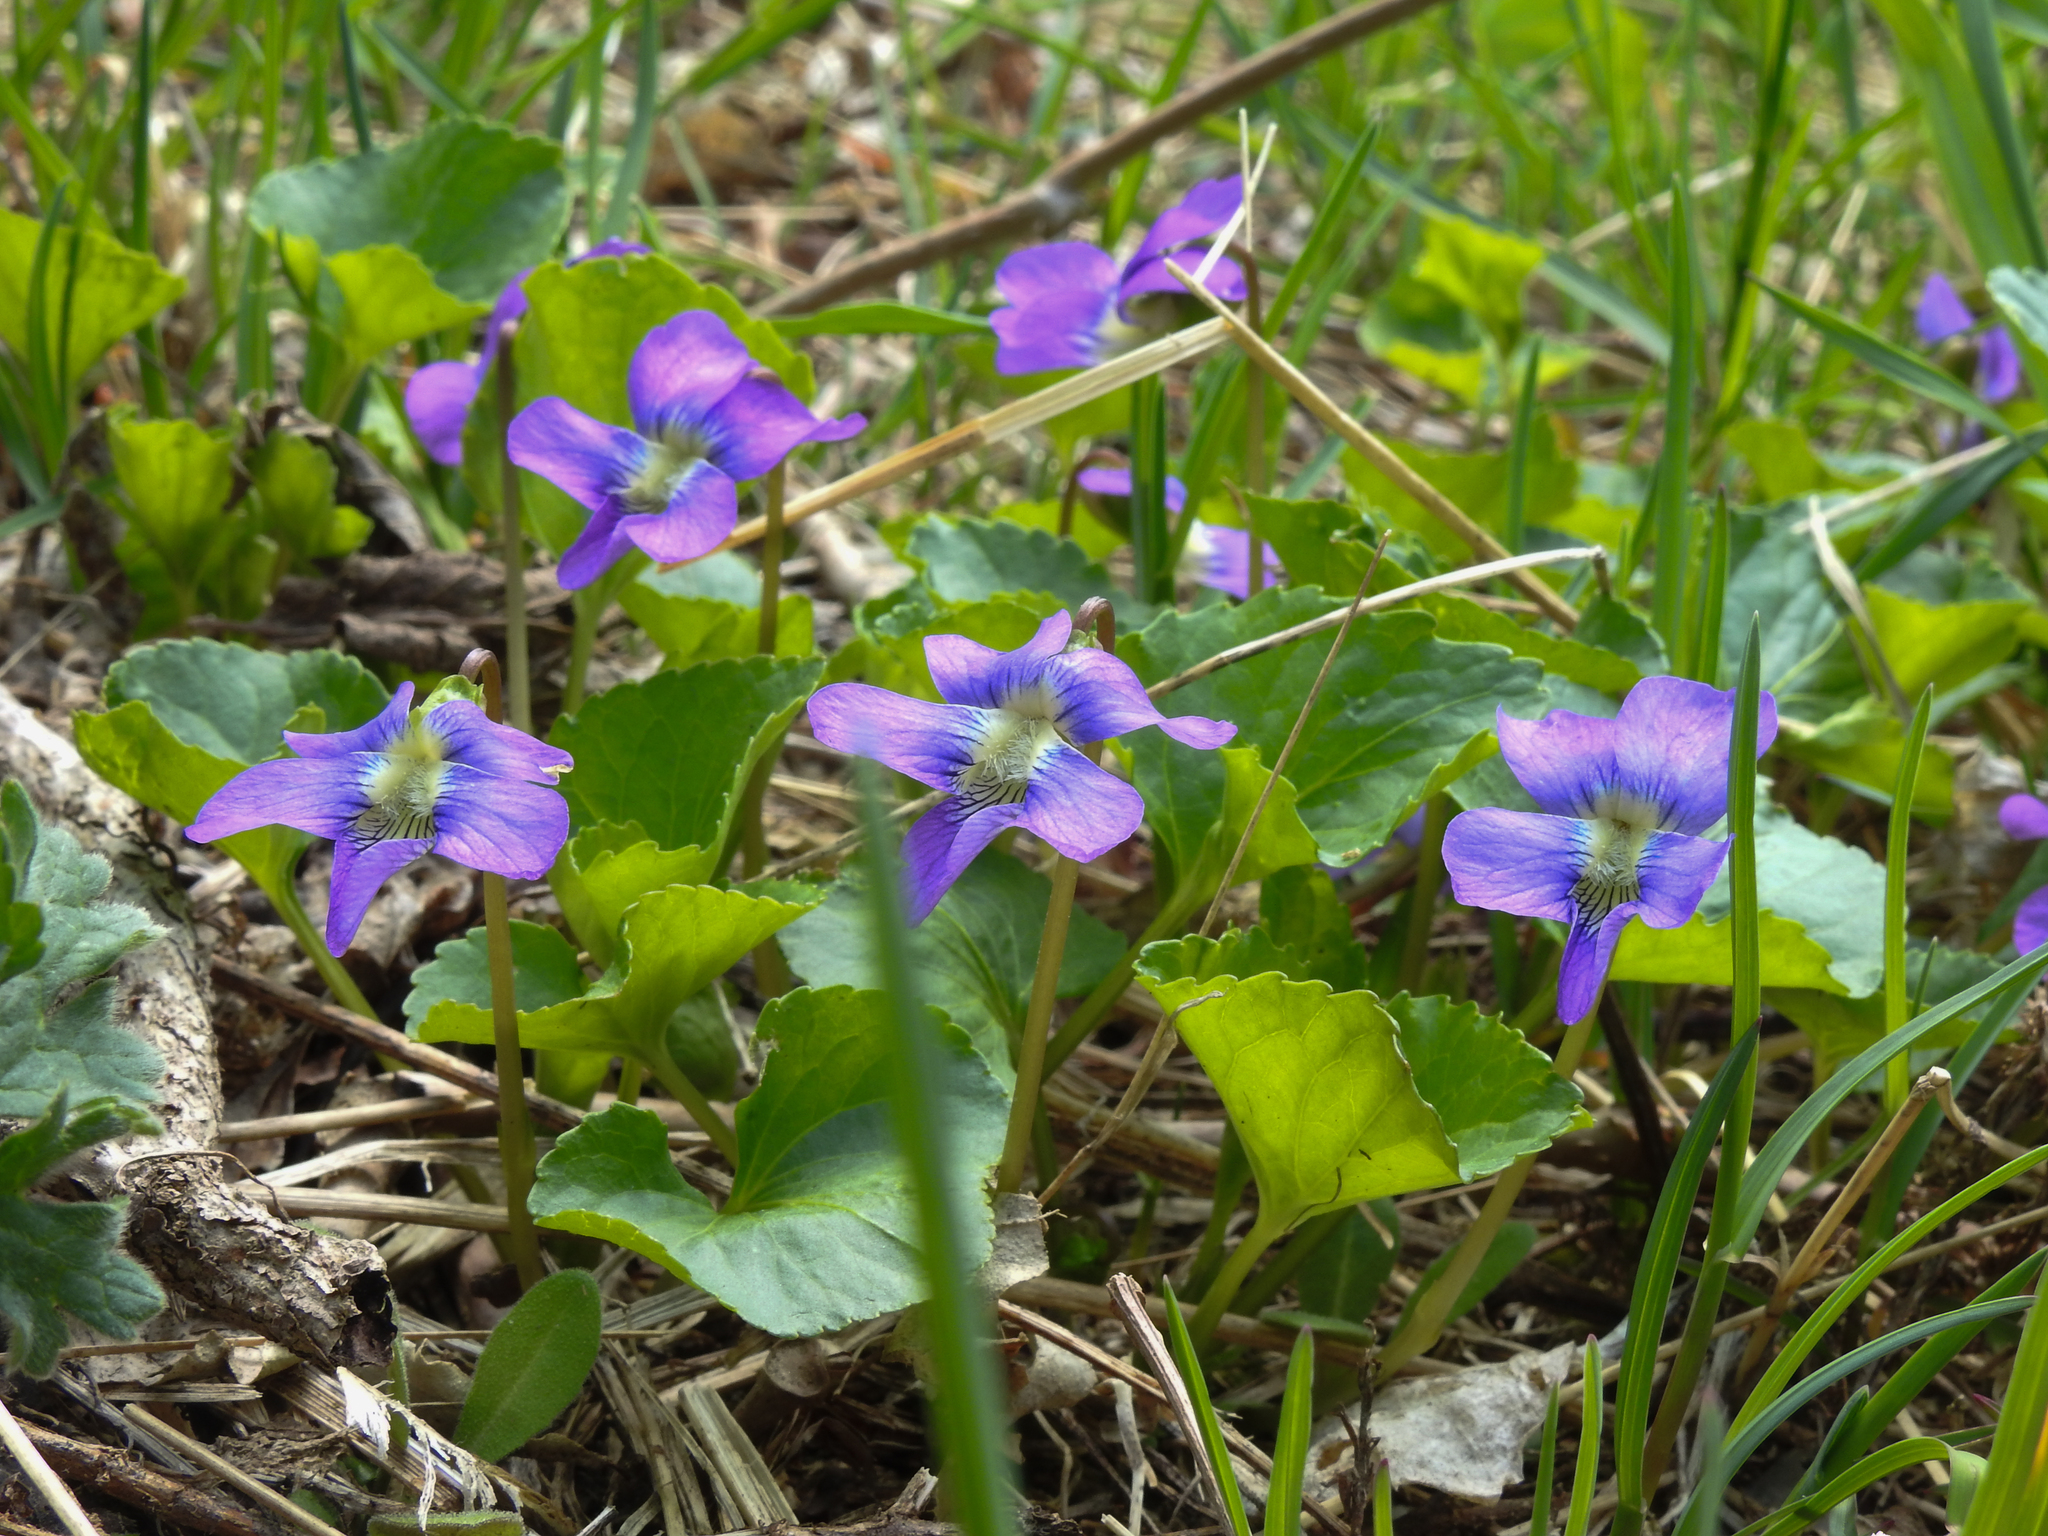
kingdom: Plantae
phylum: Tracheophyta
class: Magnoliopsida
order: Malpighiales
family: Violaceae
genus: Viola
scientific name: Viola sororia
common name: Dooryard violet
